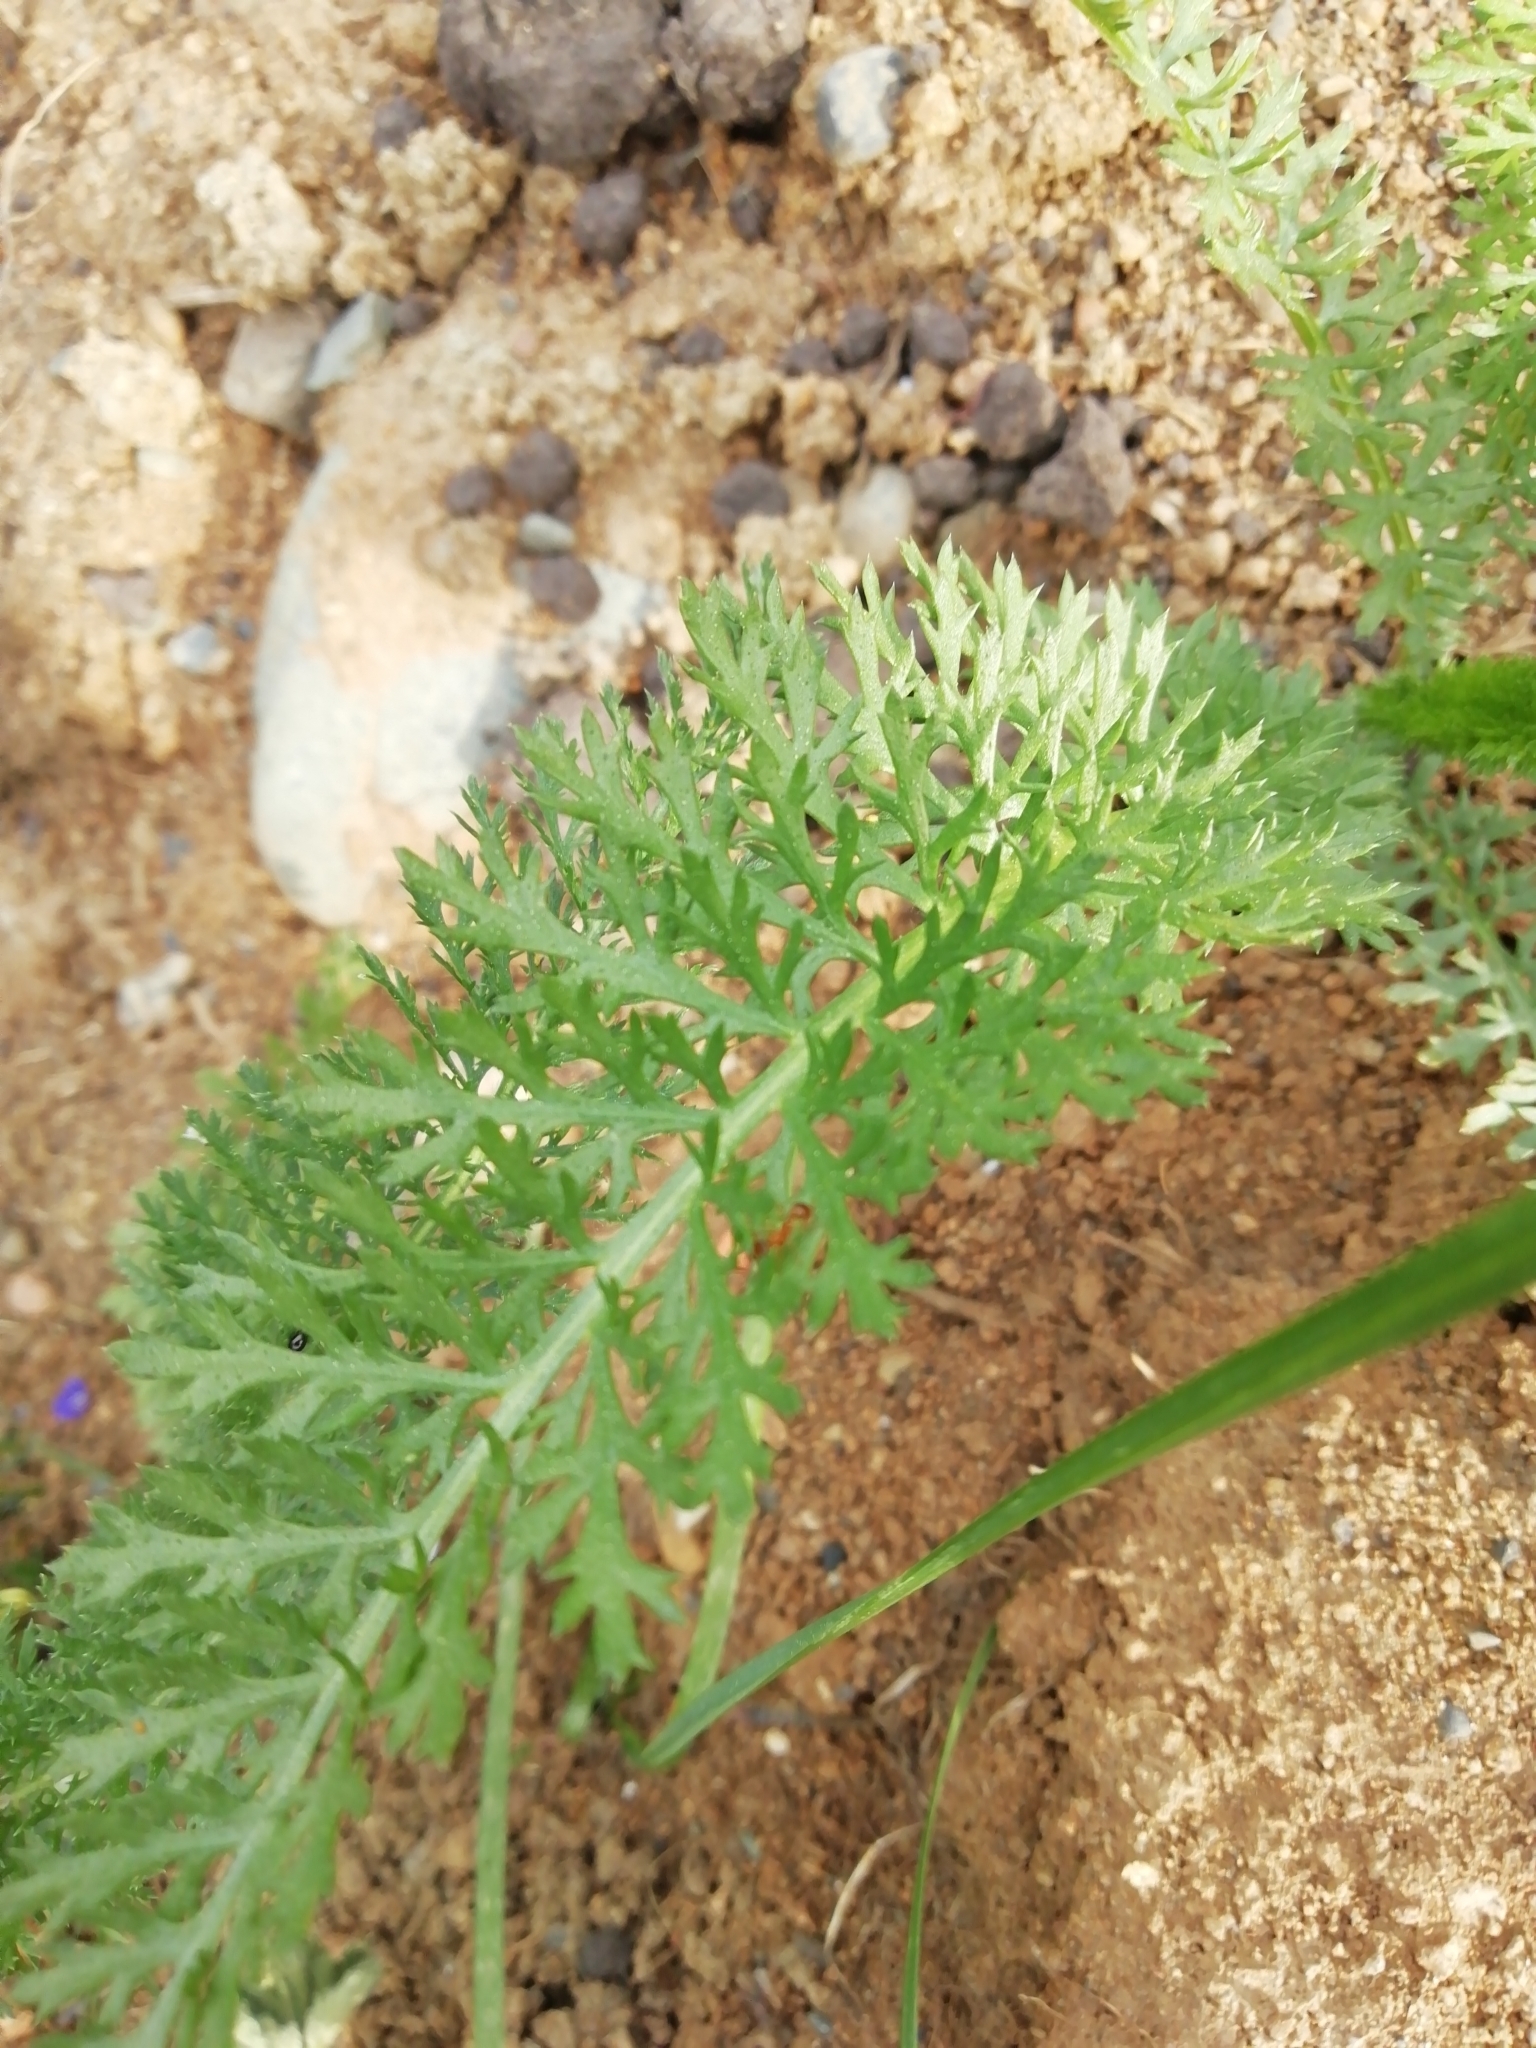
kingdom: Plantae
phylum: Tracheophyta
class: Magnoliopsida
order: Asterales
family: Asteraceae
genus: Achillea
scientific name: Achillea millefolium
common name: Yarrow
